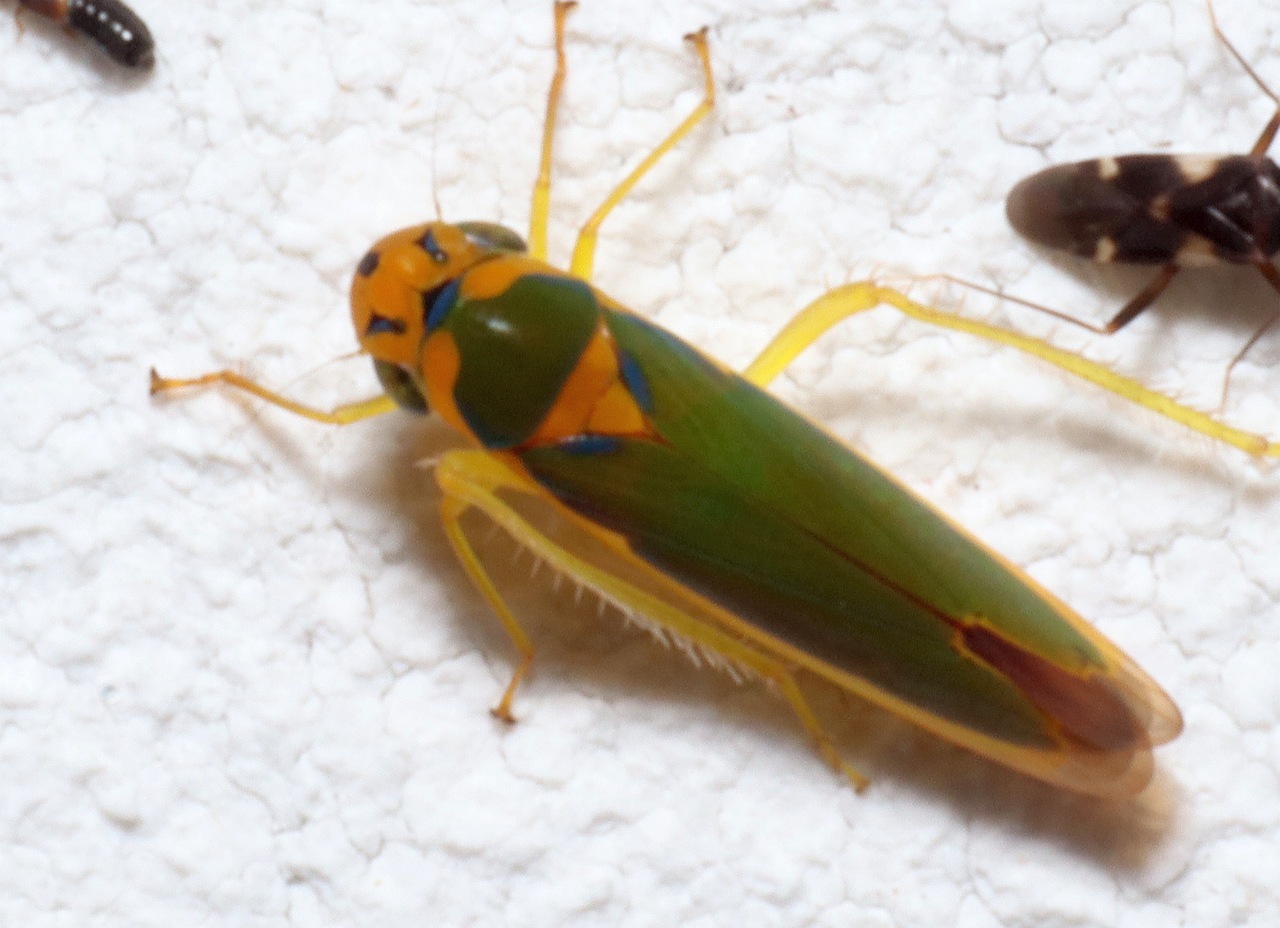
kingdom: Animalia
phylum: Arthropoda
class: Insecta
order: Hemiptera
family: Cicadellidae
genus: Catagonalia
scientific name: Catagonalia conjunctula
